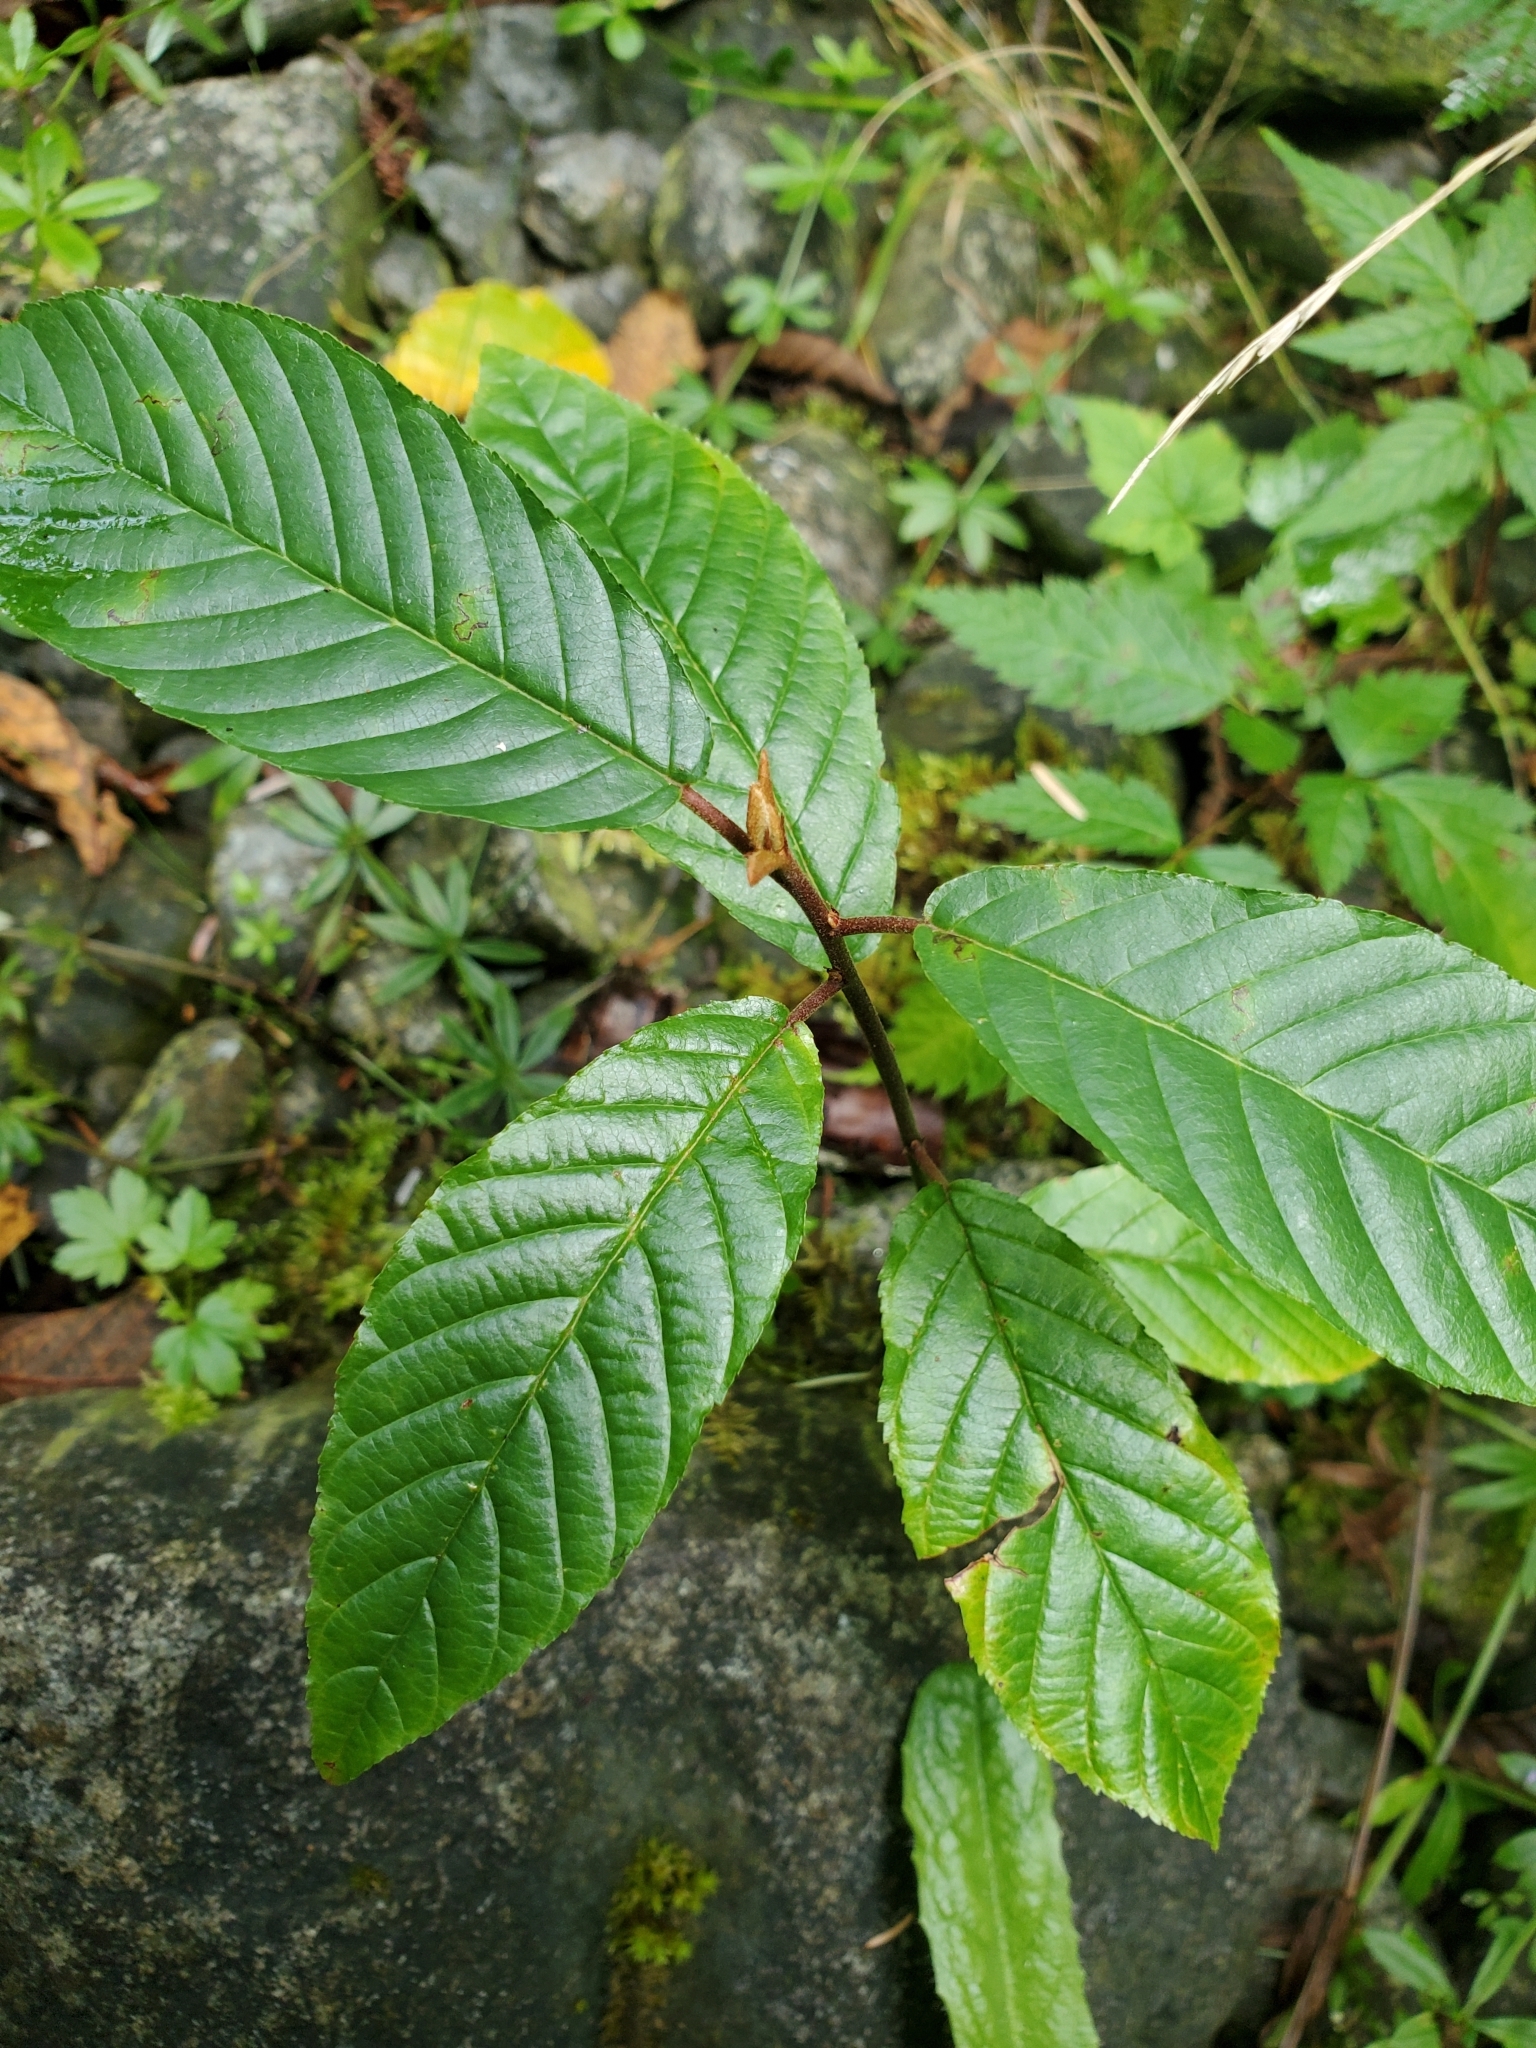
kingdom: Plantae
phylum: Tracheophyta
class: Magnoliopsida
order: Rosales
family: Rhamnaceae
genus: Frangula
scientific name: Frangula purshiana
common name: Cascara buckthorn
